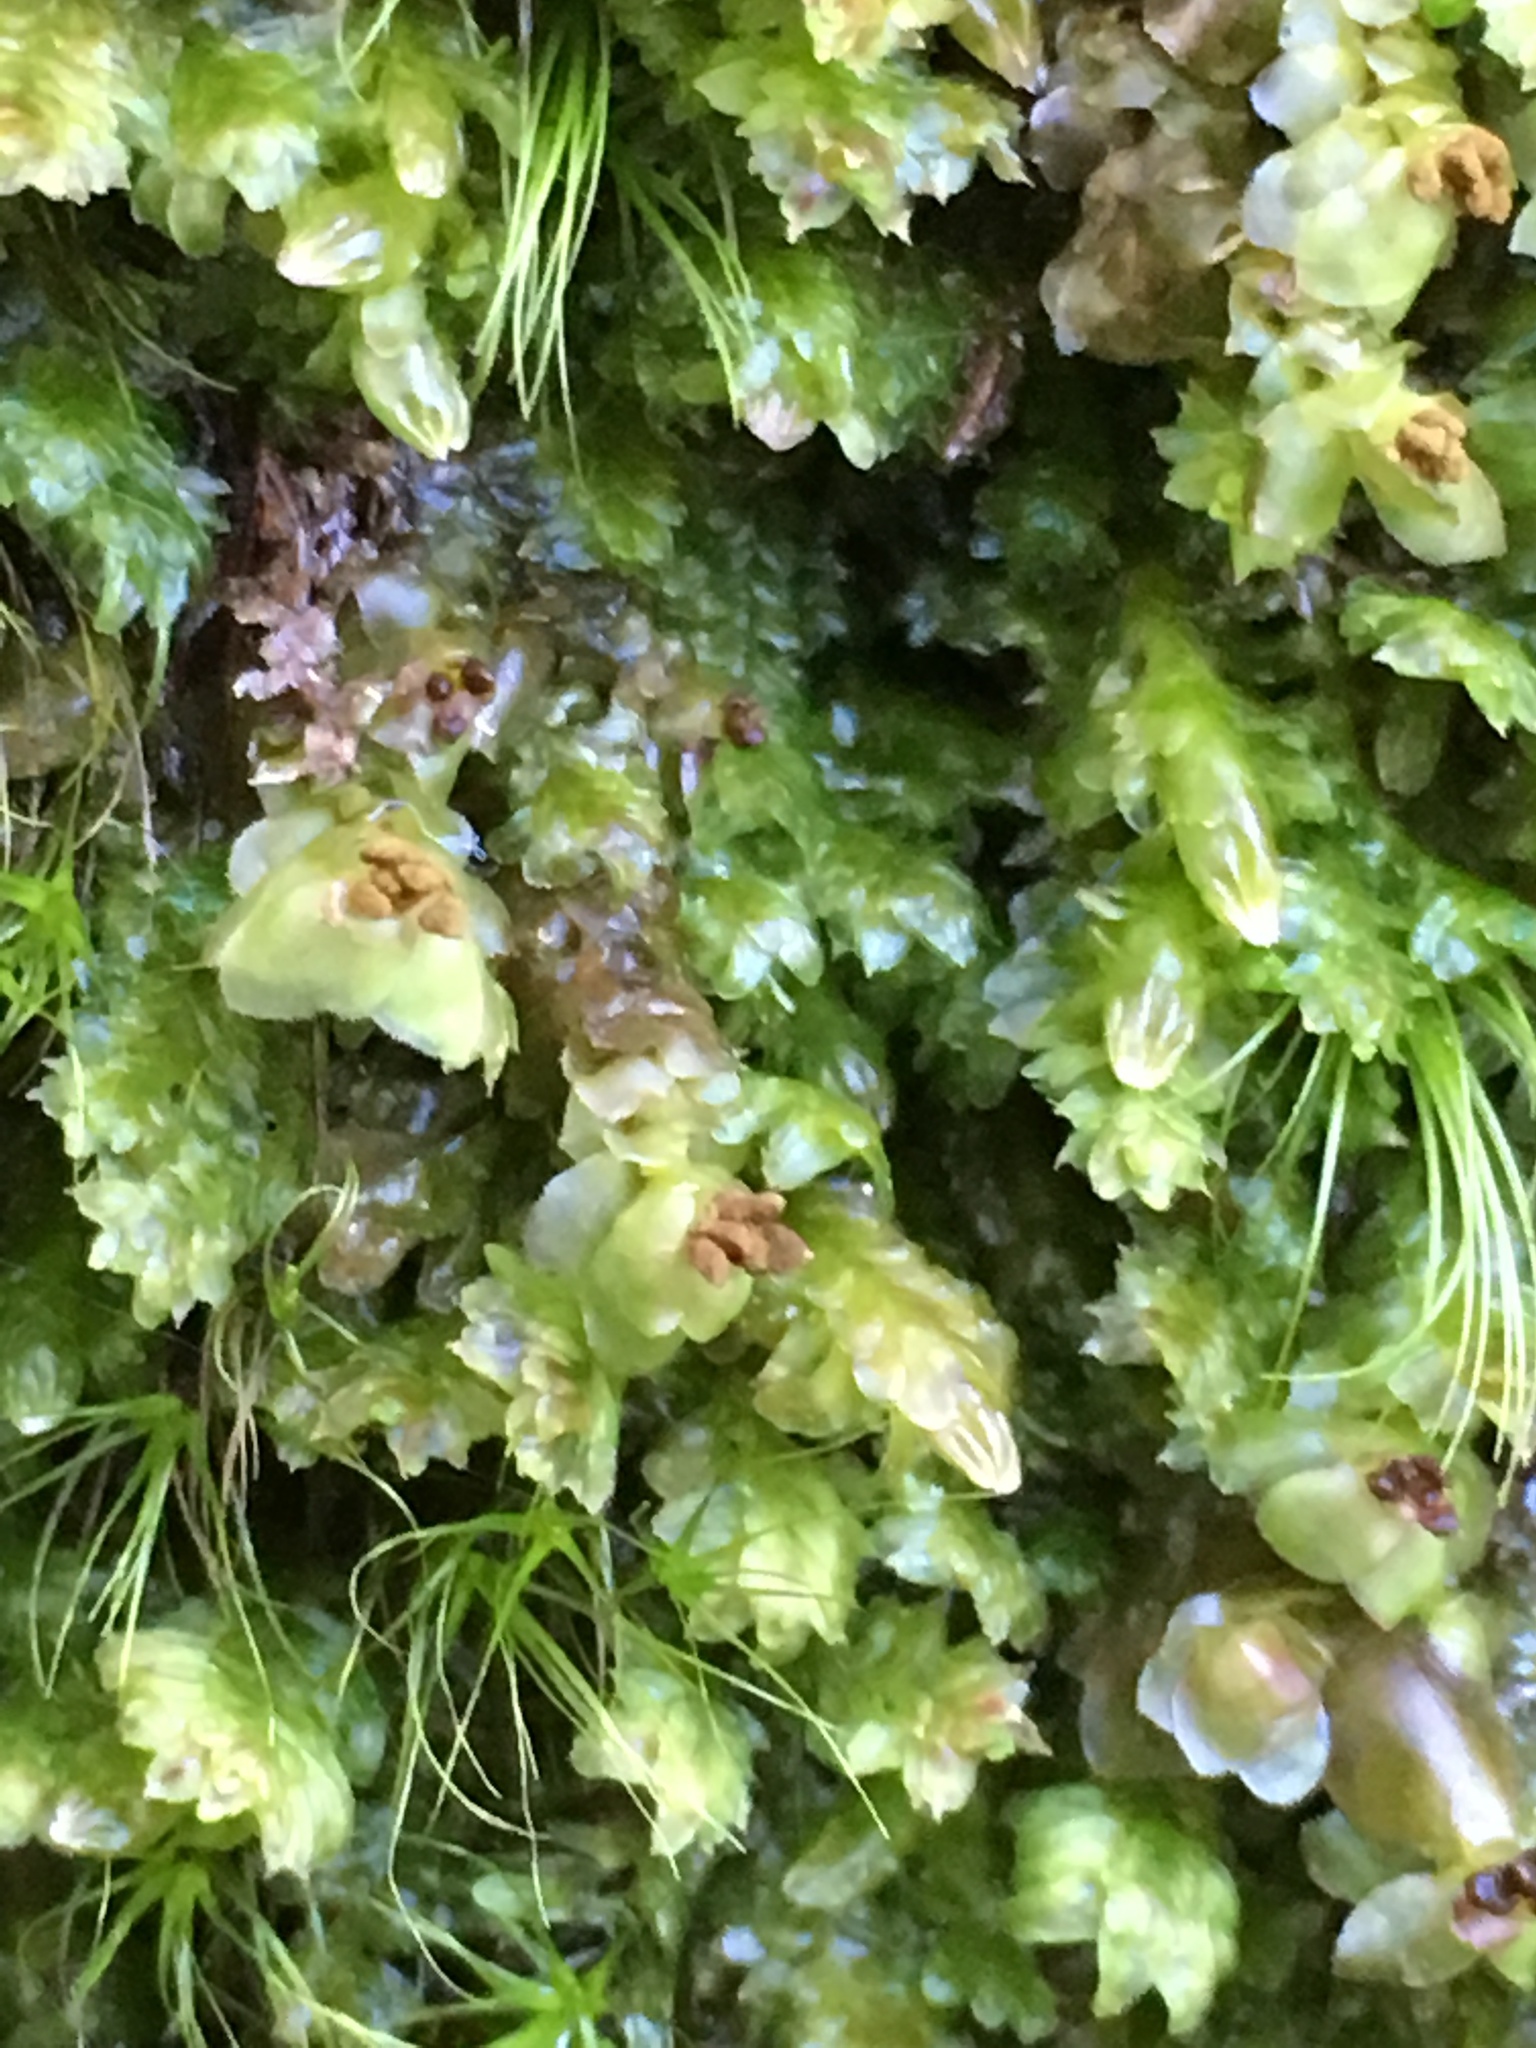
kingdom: Plantae
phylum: Marchantiophyta
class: Jungermanniopsida
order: Jungermanniales
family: Scapaniaceae
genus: Scapania
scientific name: Scapania nemorea
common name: Grove earwort
